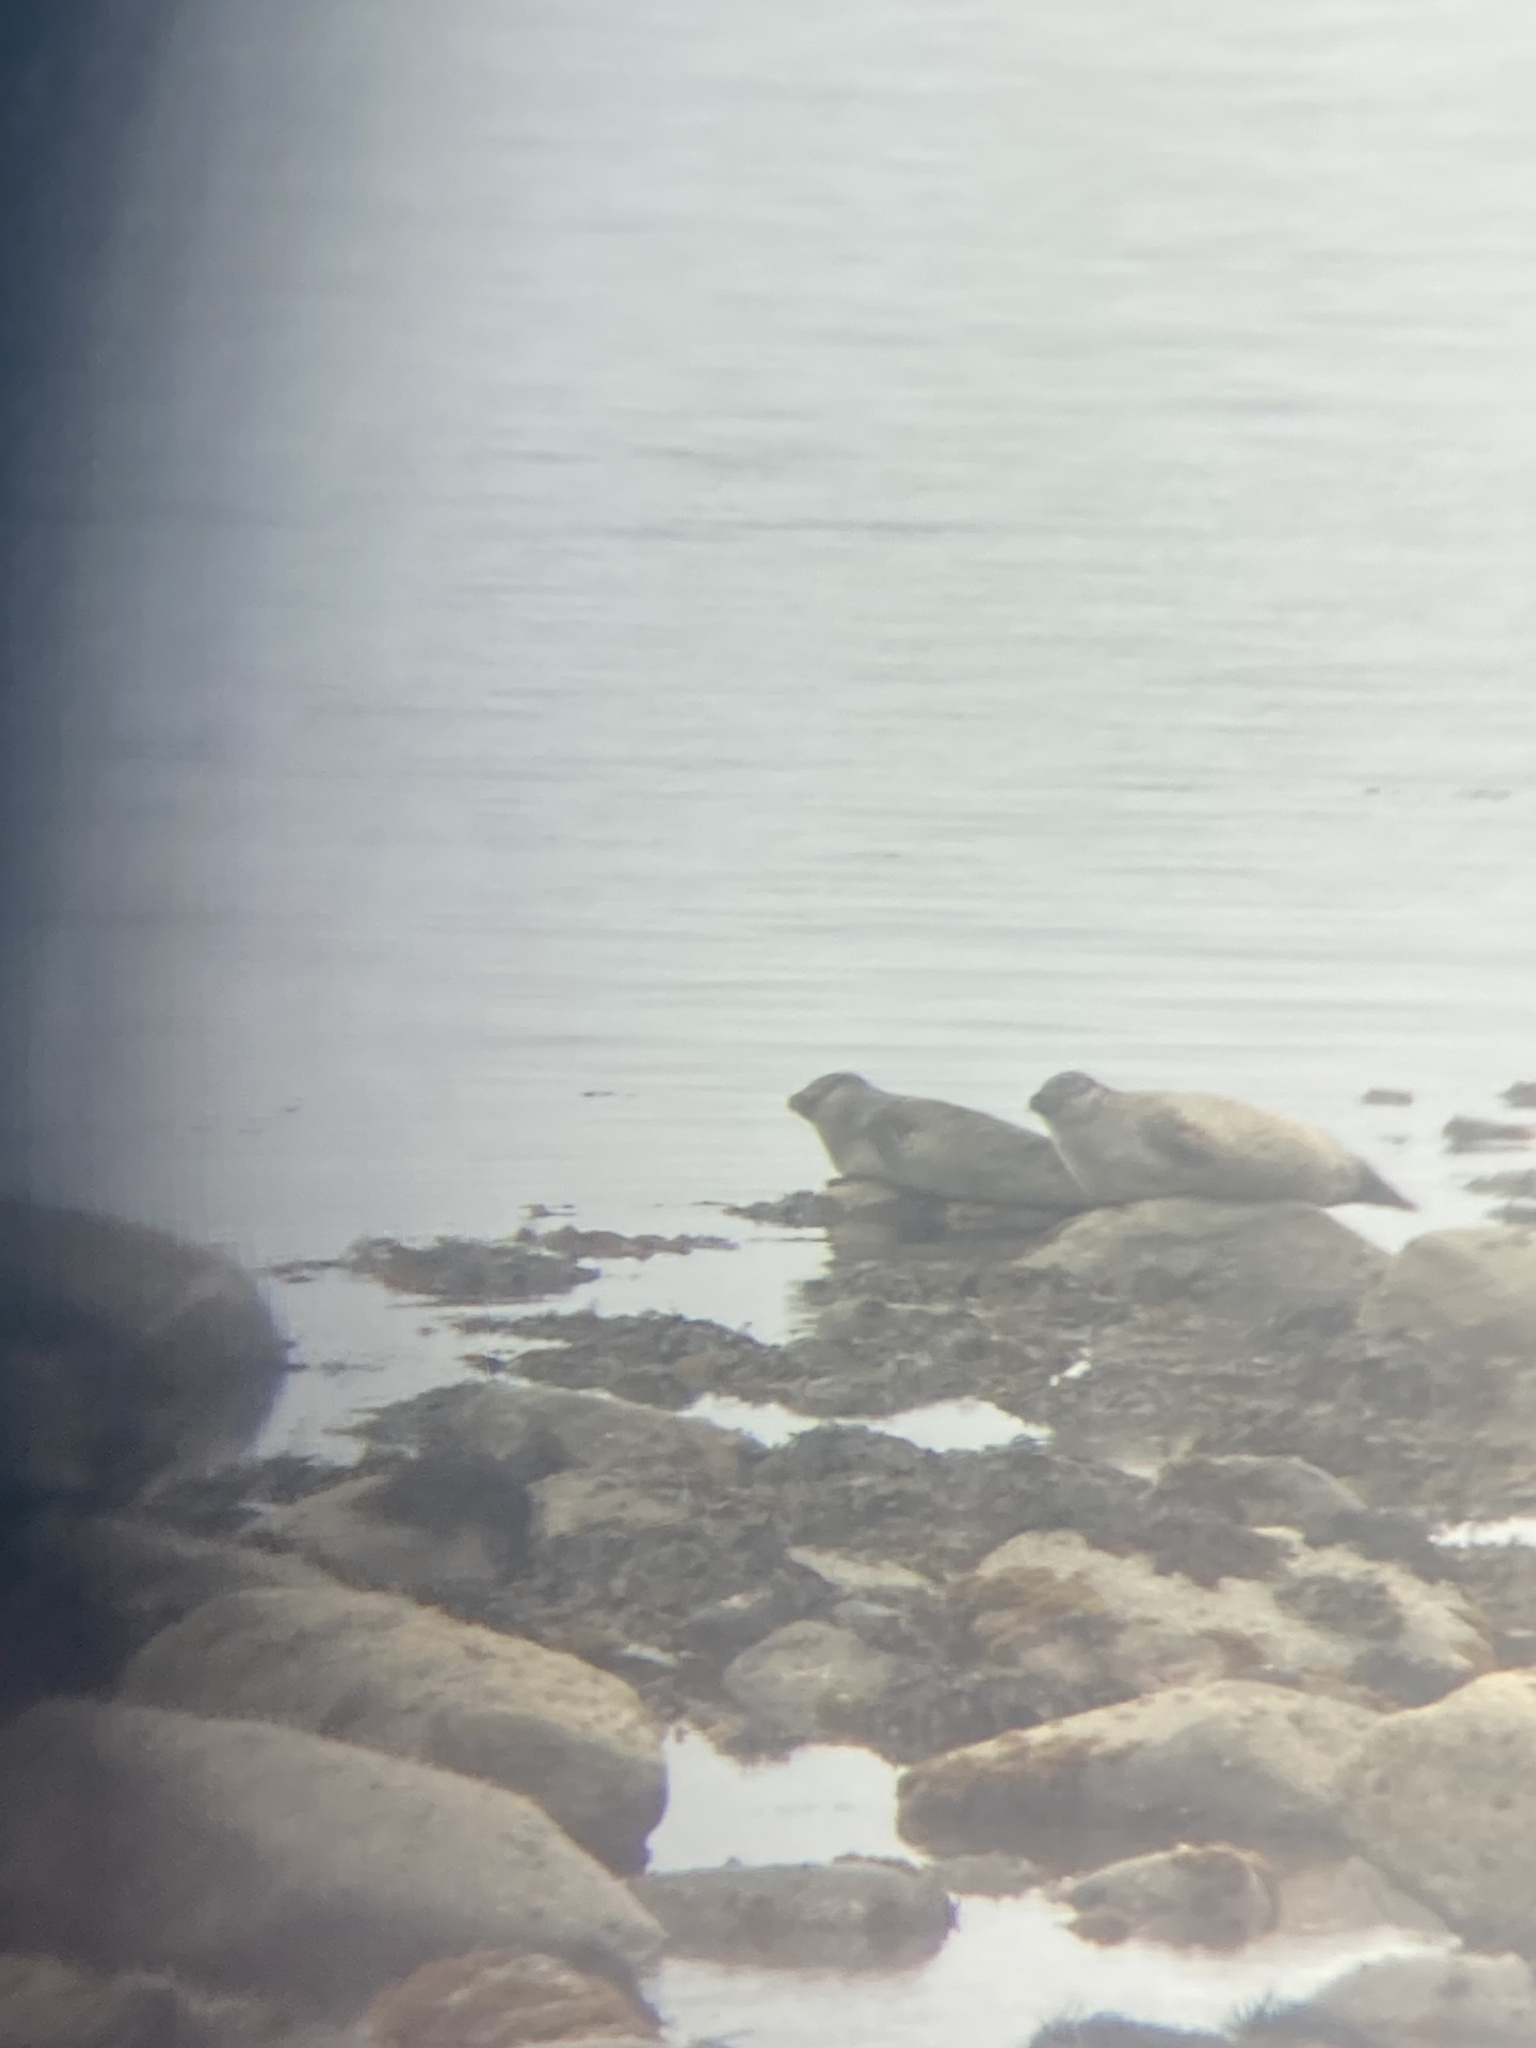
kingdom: Animalia
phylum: Chordata
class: Mammalia
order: Carnivora
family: Phocidae
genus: Phoca
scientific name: Phoca vitulina
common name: Harbor seal
